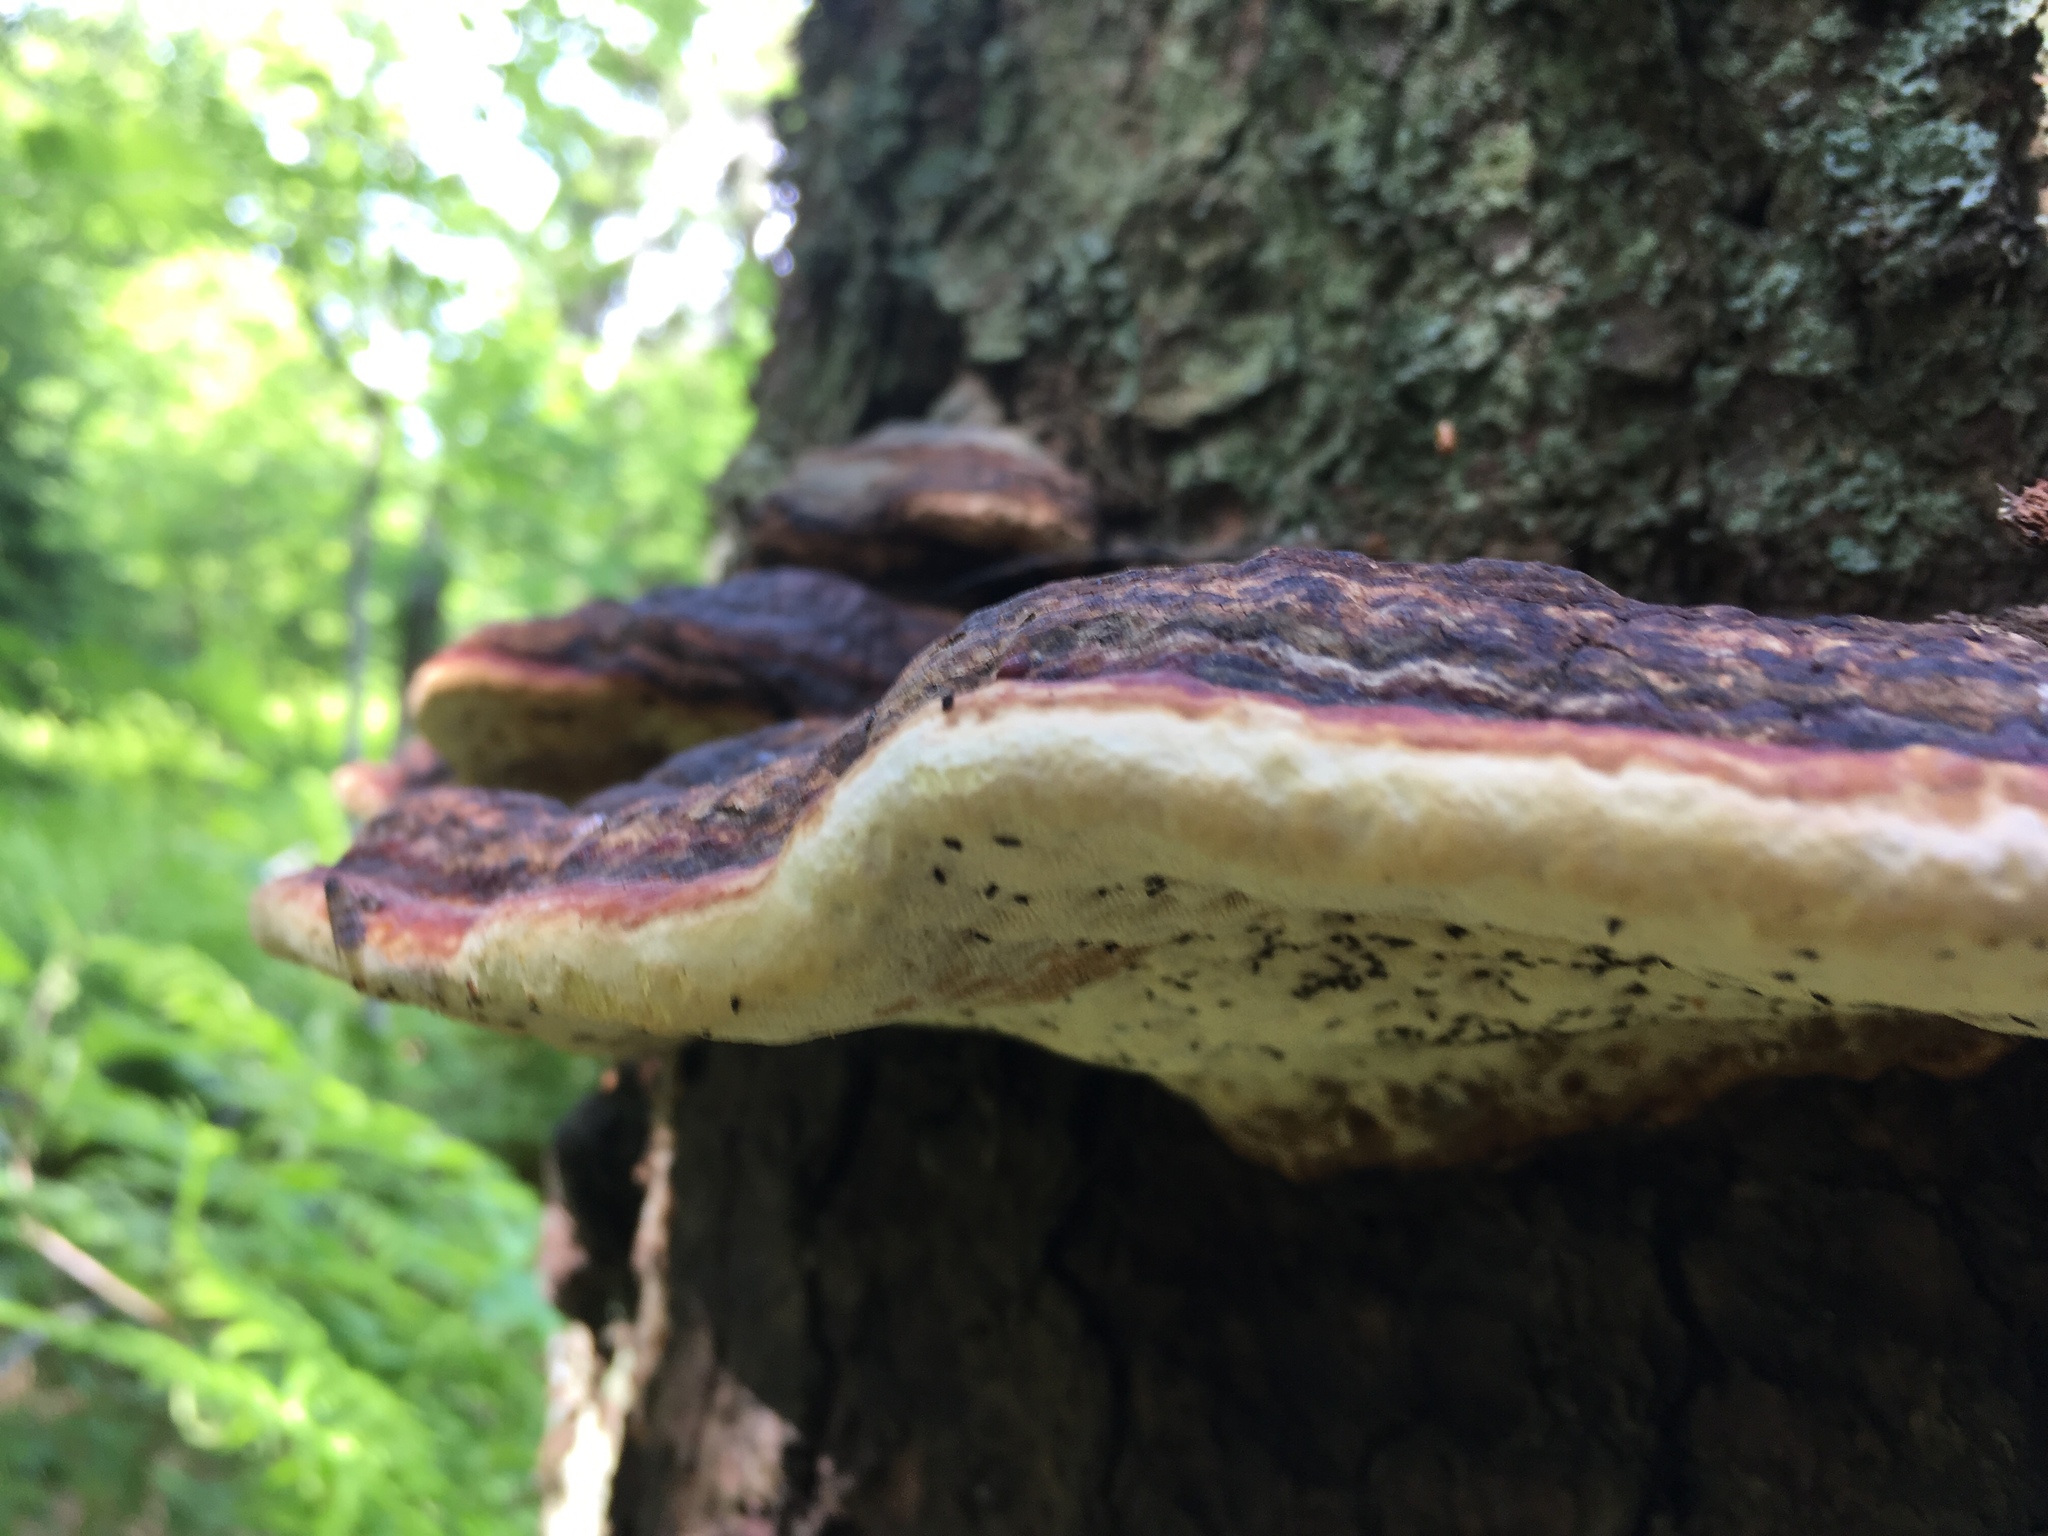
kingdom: Animalia
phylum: Arthropoda
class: Insecta
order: Coleoptera
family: Trogossitidae
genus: Peltis
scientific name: Peltis ferruginea
